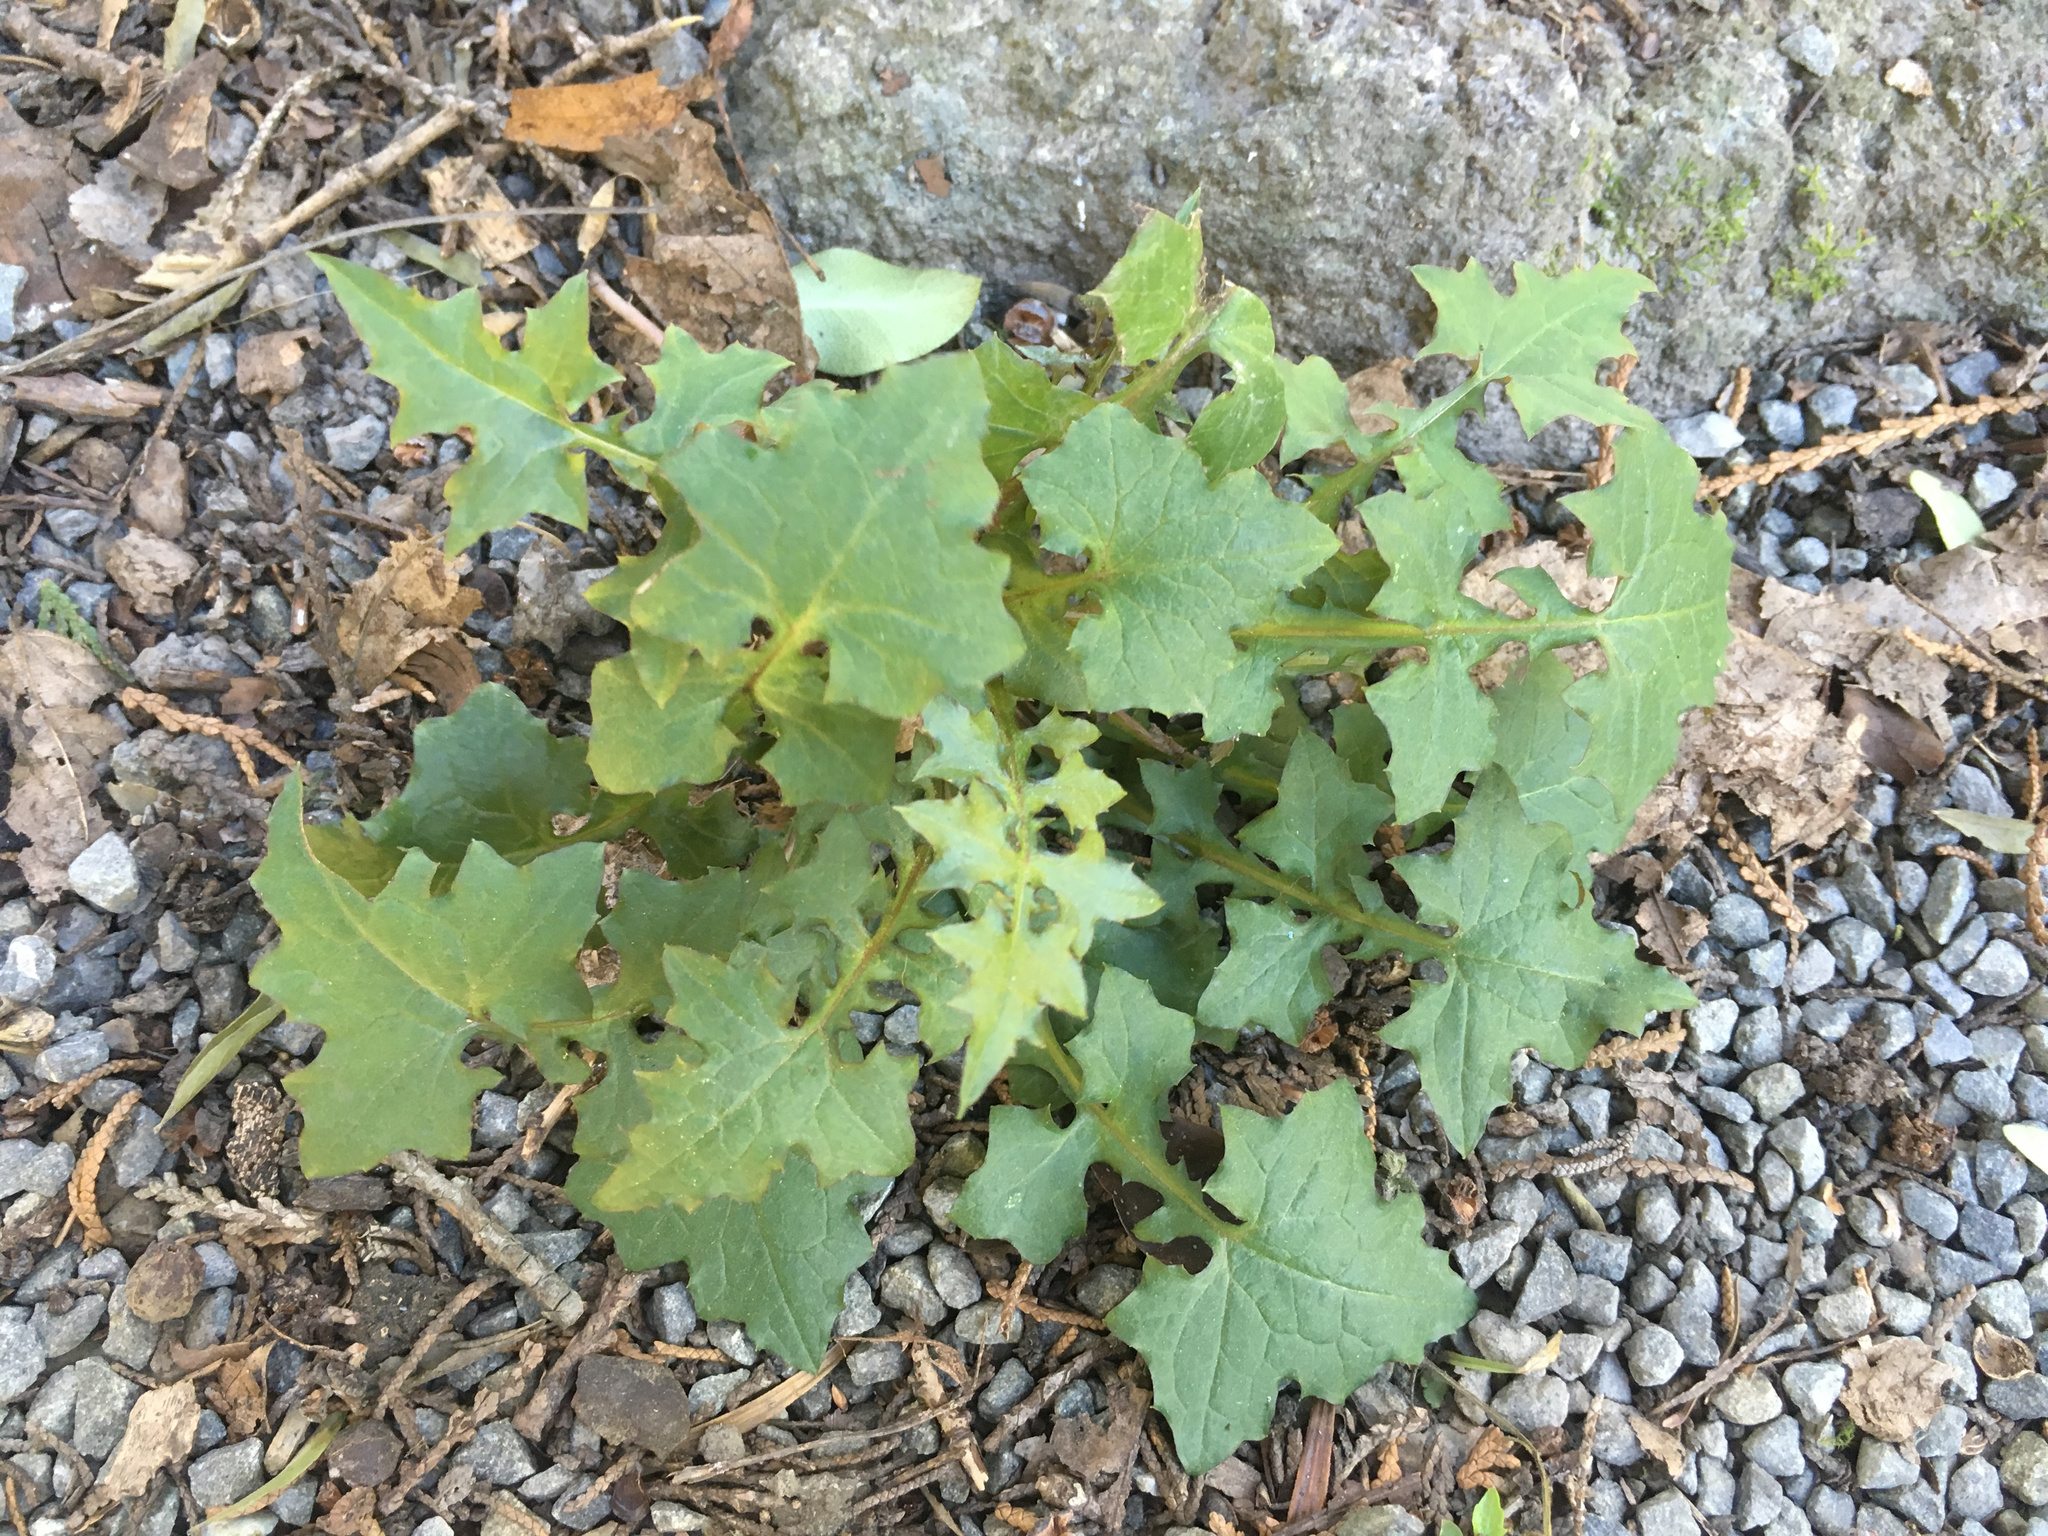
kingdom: Plantae
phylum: Tracheophyta
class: Magnoliopsida
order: Asterales
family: Asteraceae
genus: Mycelis
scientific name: Mycelis muralis
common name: Wall lettuce
